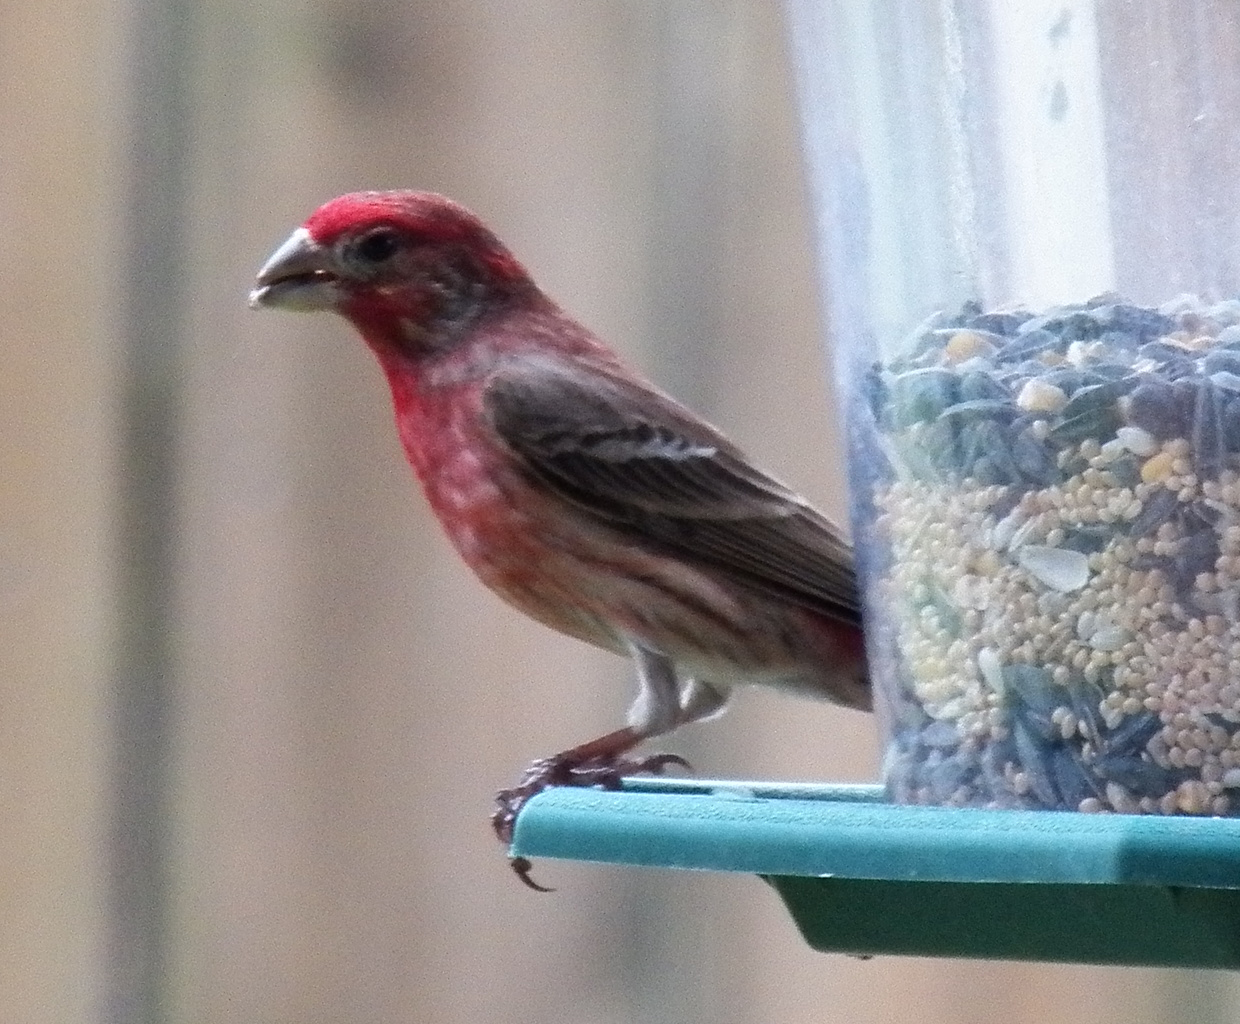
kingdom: Animalia
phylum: Chordata
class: Aves
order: Passeriformes
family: Fringillidae
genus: Haemorhous
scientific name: Haemorhous mexicanus
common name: House finch
